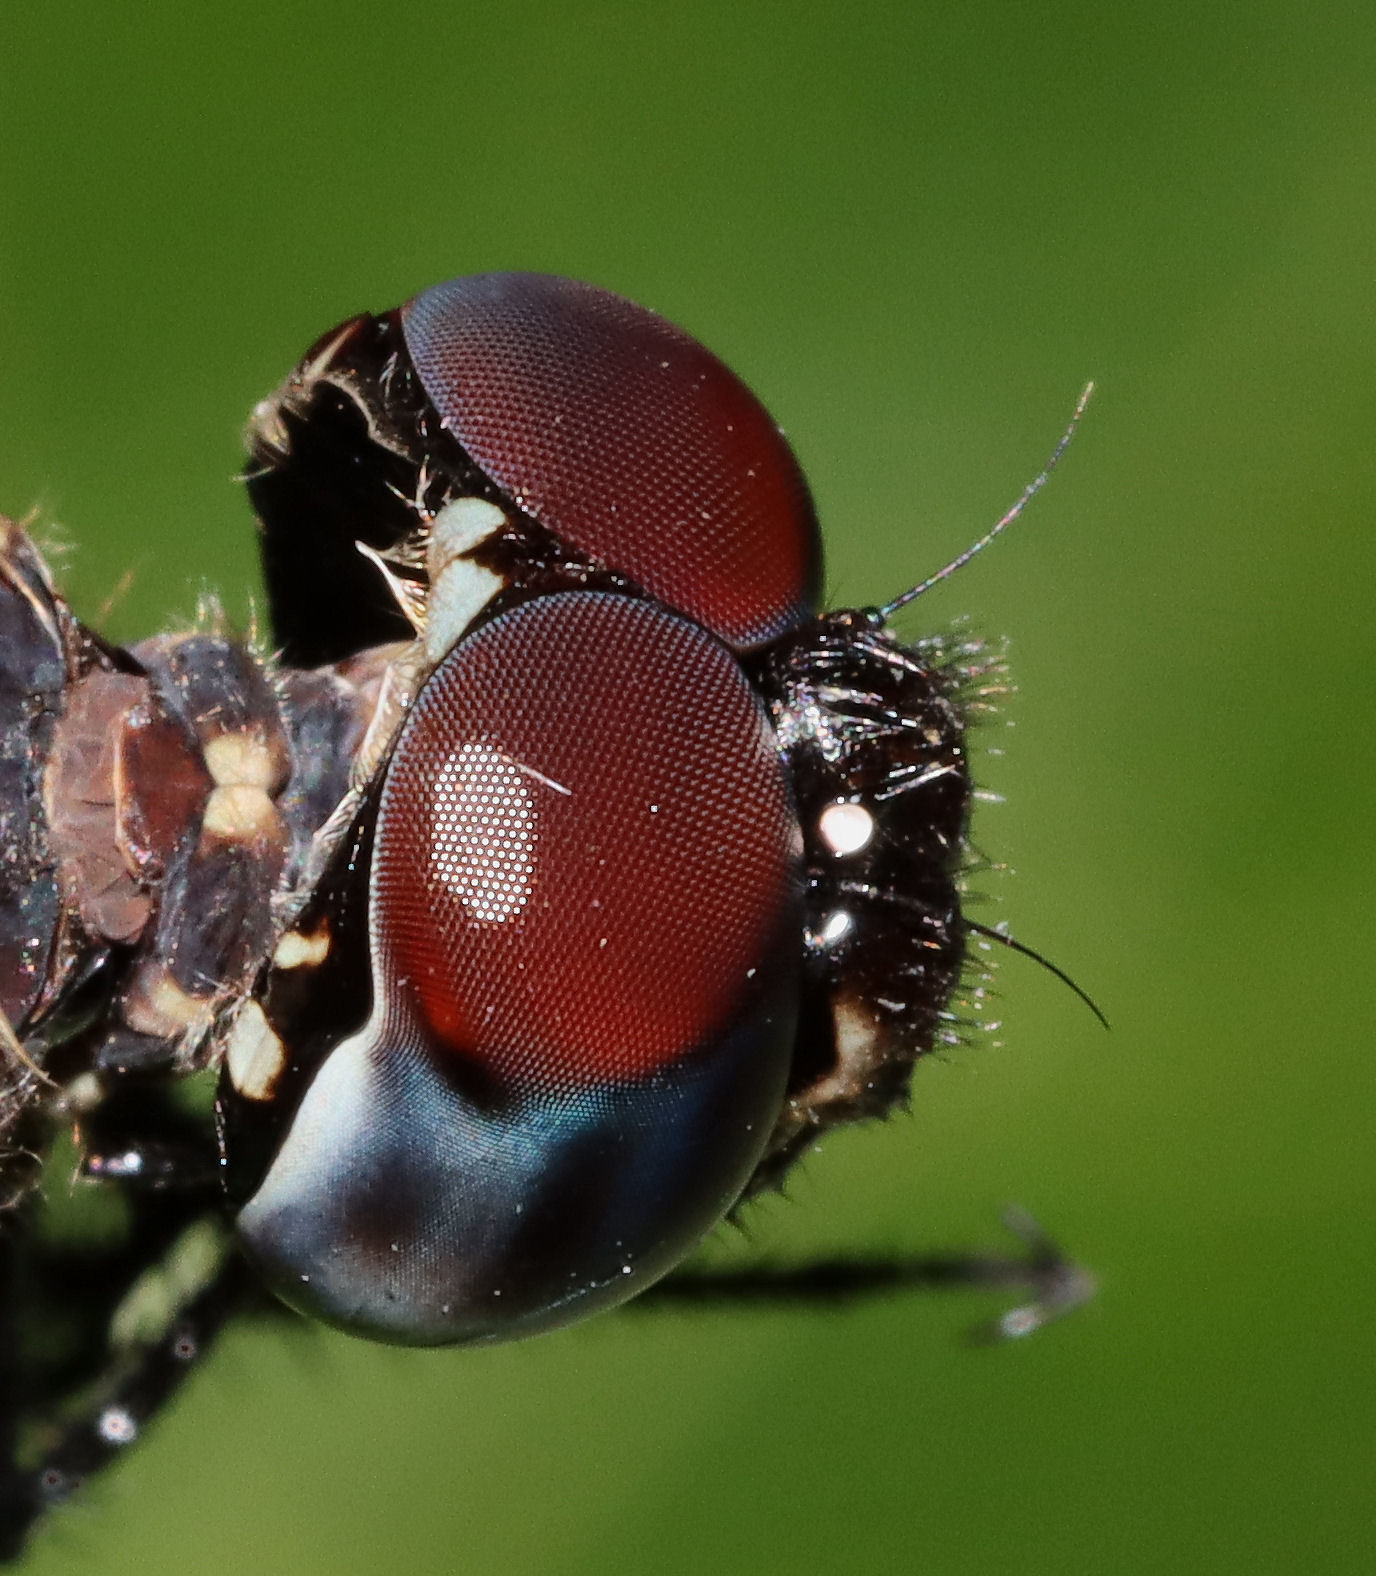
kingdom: Animalia
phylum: Arthropoda
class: Insecta
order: Odonata
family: Libellulidae
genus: Dythemis
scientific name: Dythemis velox
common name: Swift setwing
